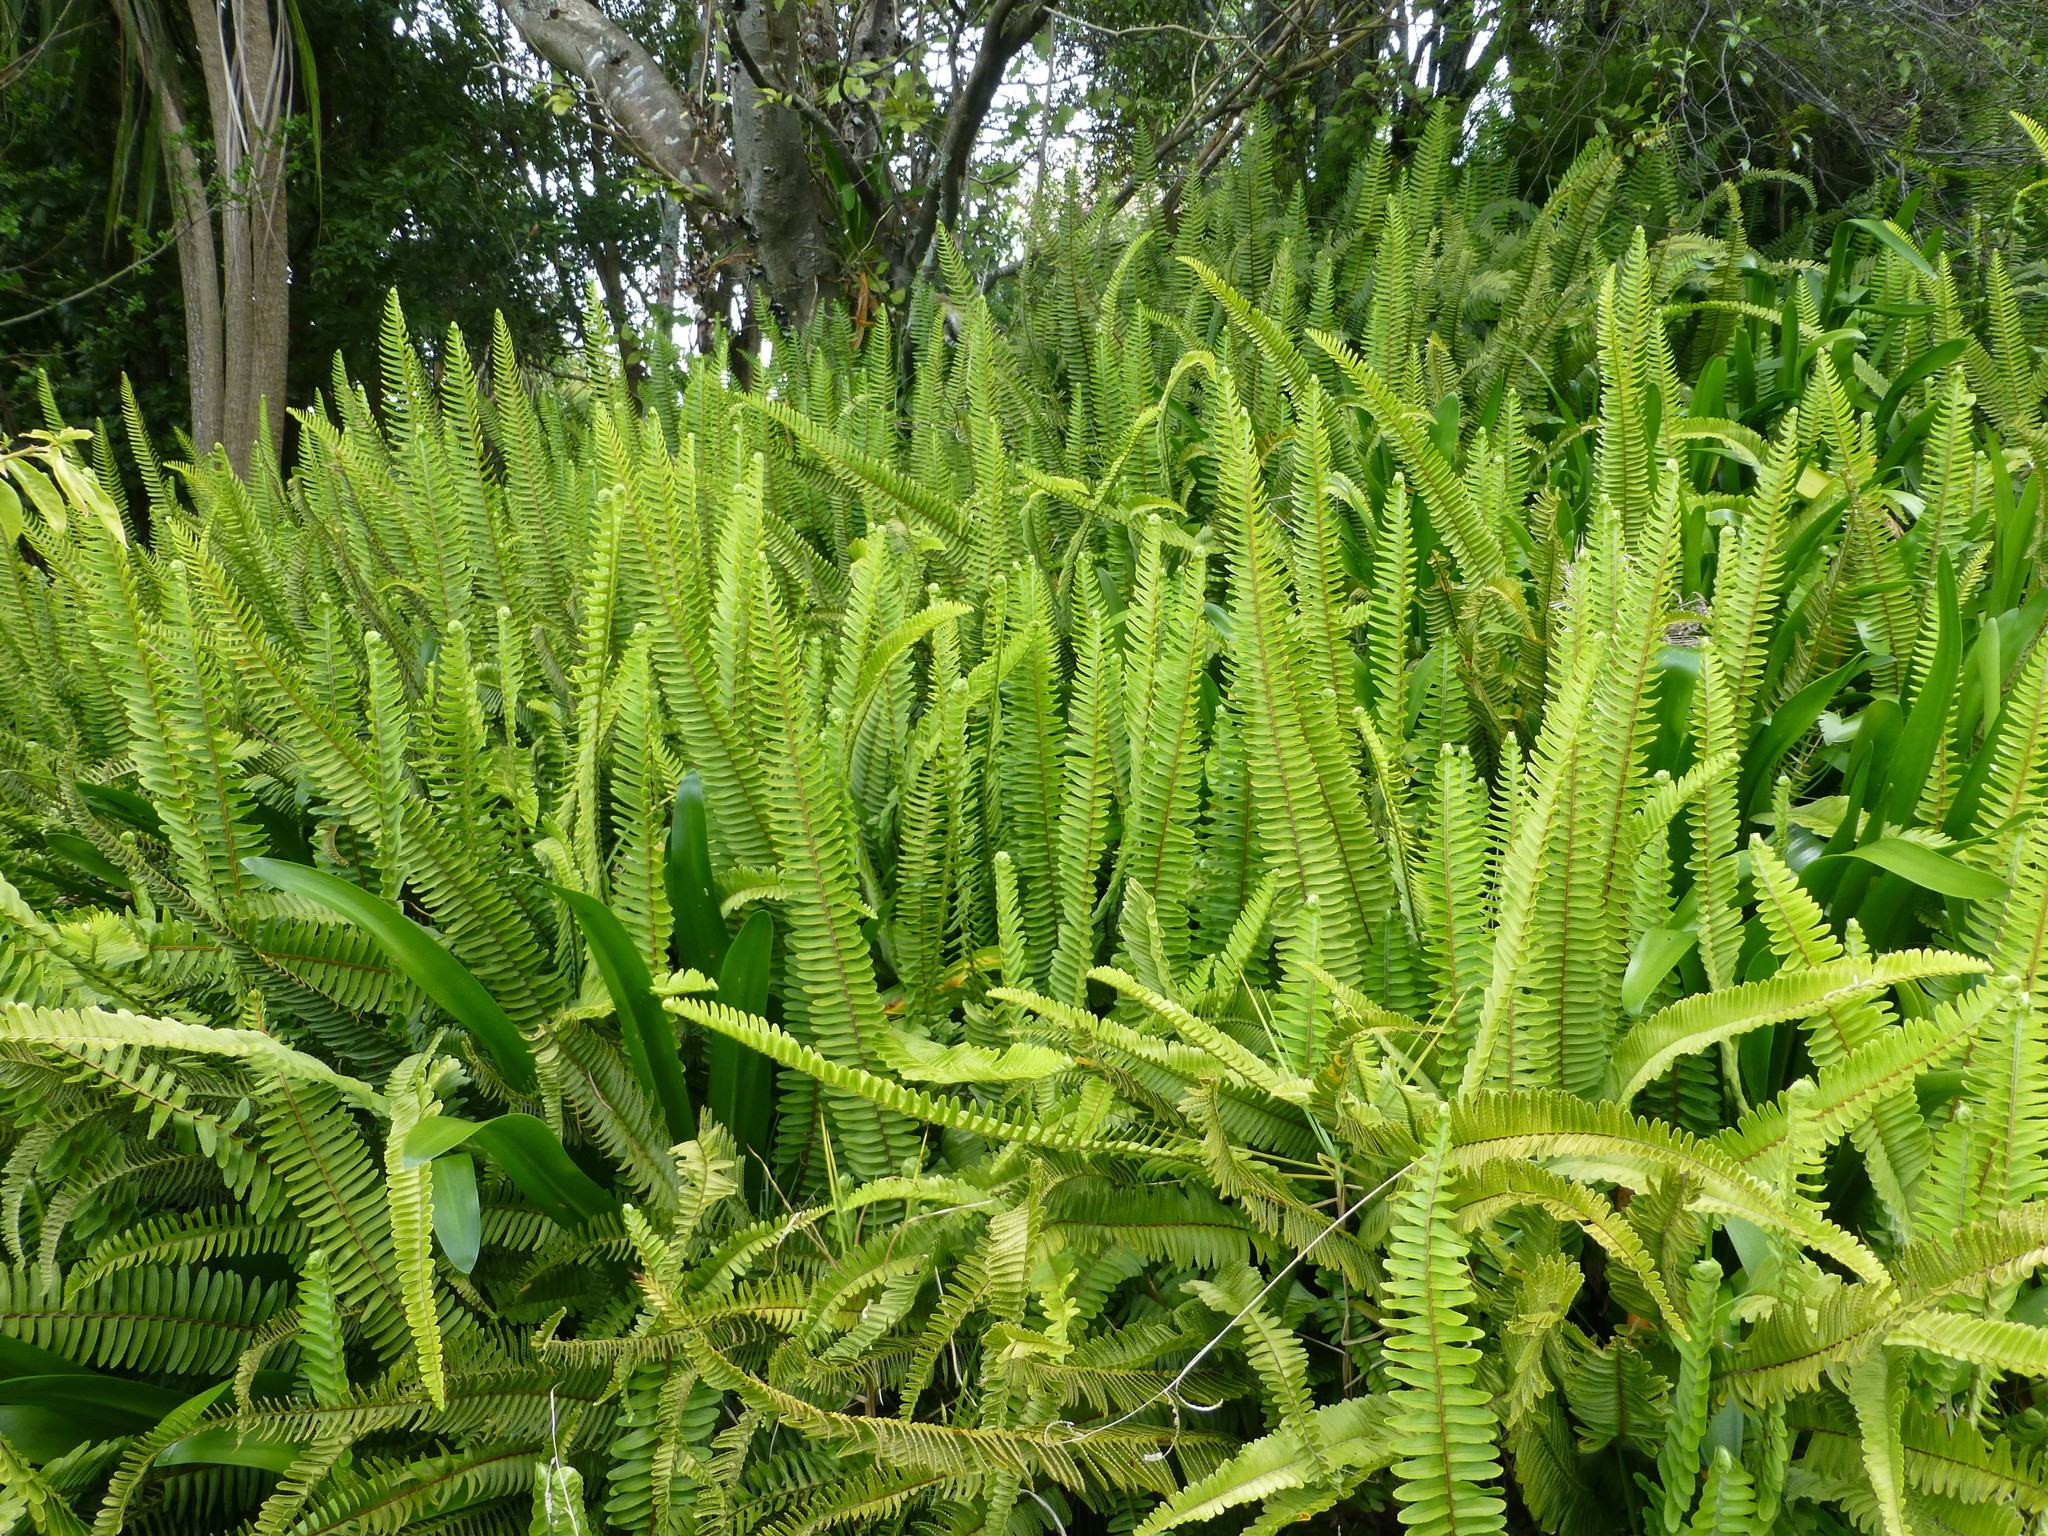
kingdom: Plantae
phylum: Tracheophyta
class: Polypodiopsida
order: Polypodiales
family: Nephrolepidaceae
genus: Nephrolepis
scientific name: Nephrolepis cordifolia
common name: Narrow swordfern
